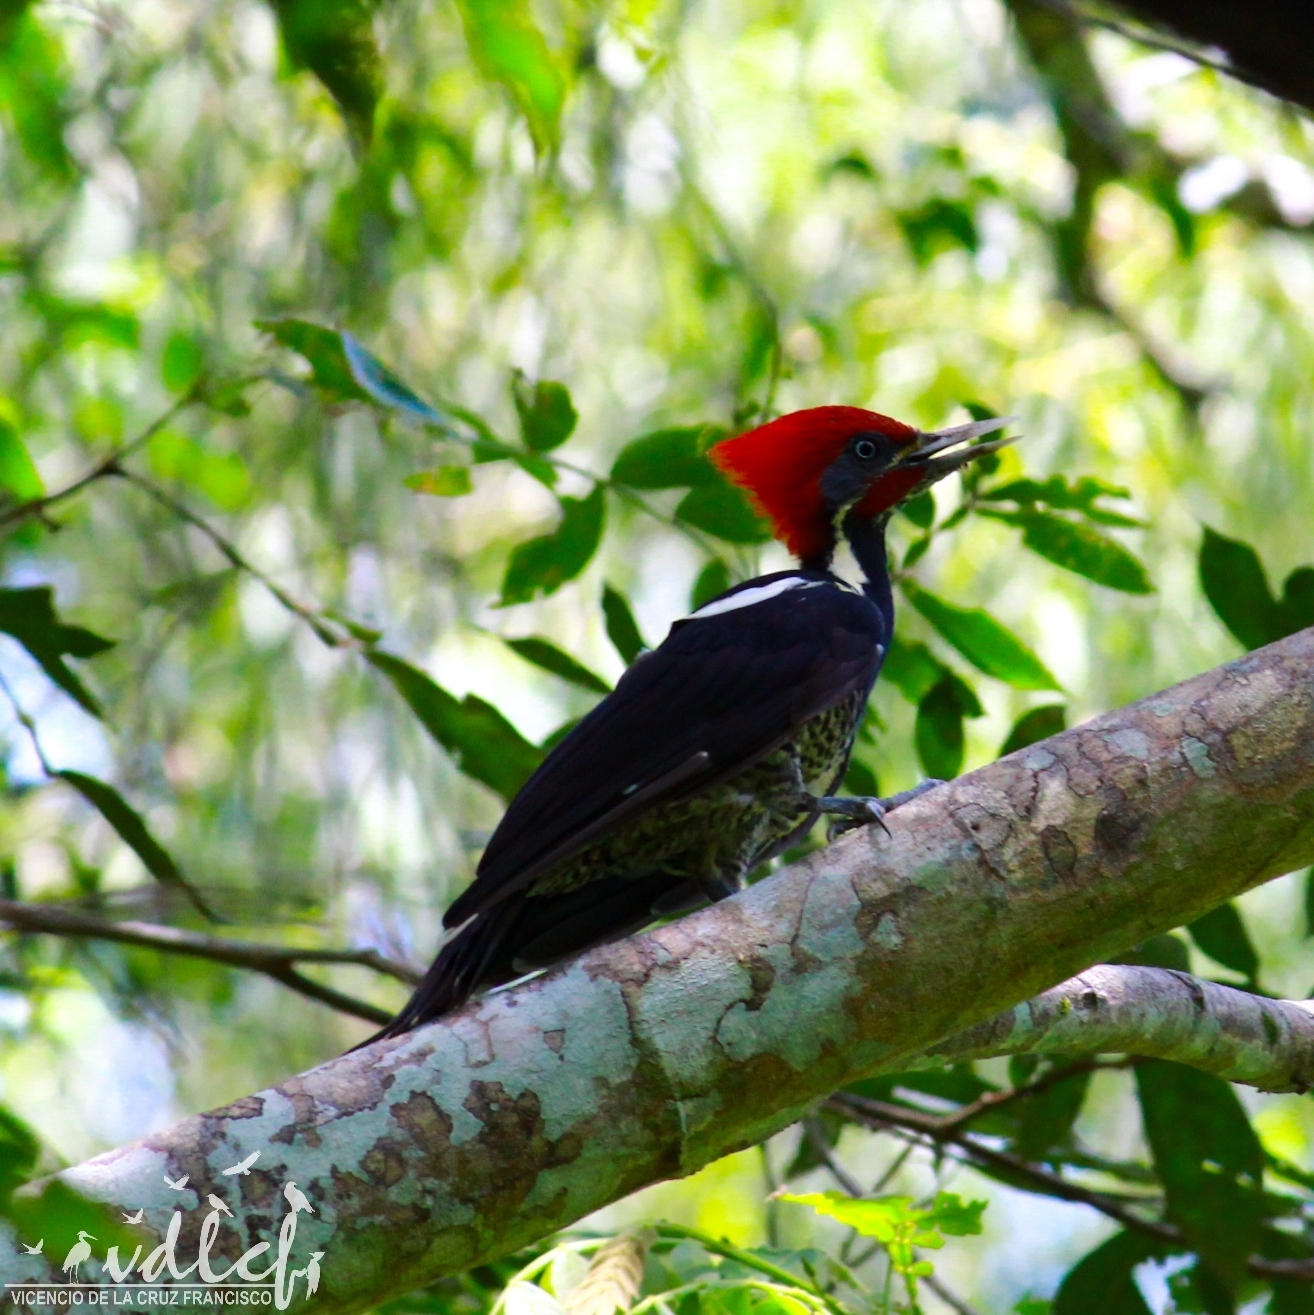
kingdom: Animalia
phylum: Chordata
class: Aves
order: Piciformes
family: Picidae
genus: Dryocopus
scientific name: Dryocopus lineatus
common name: Lineated woodpecker
